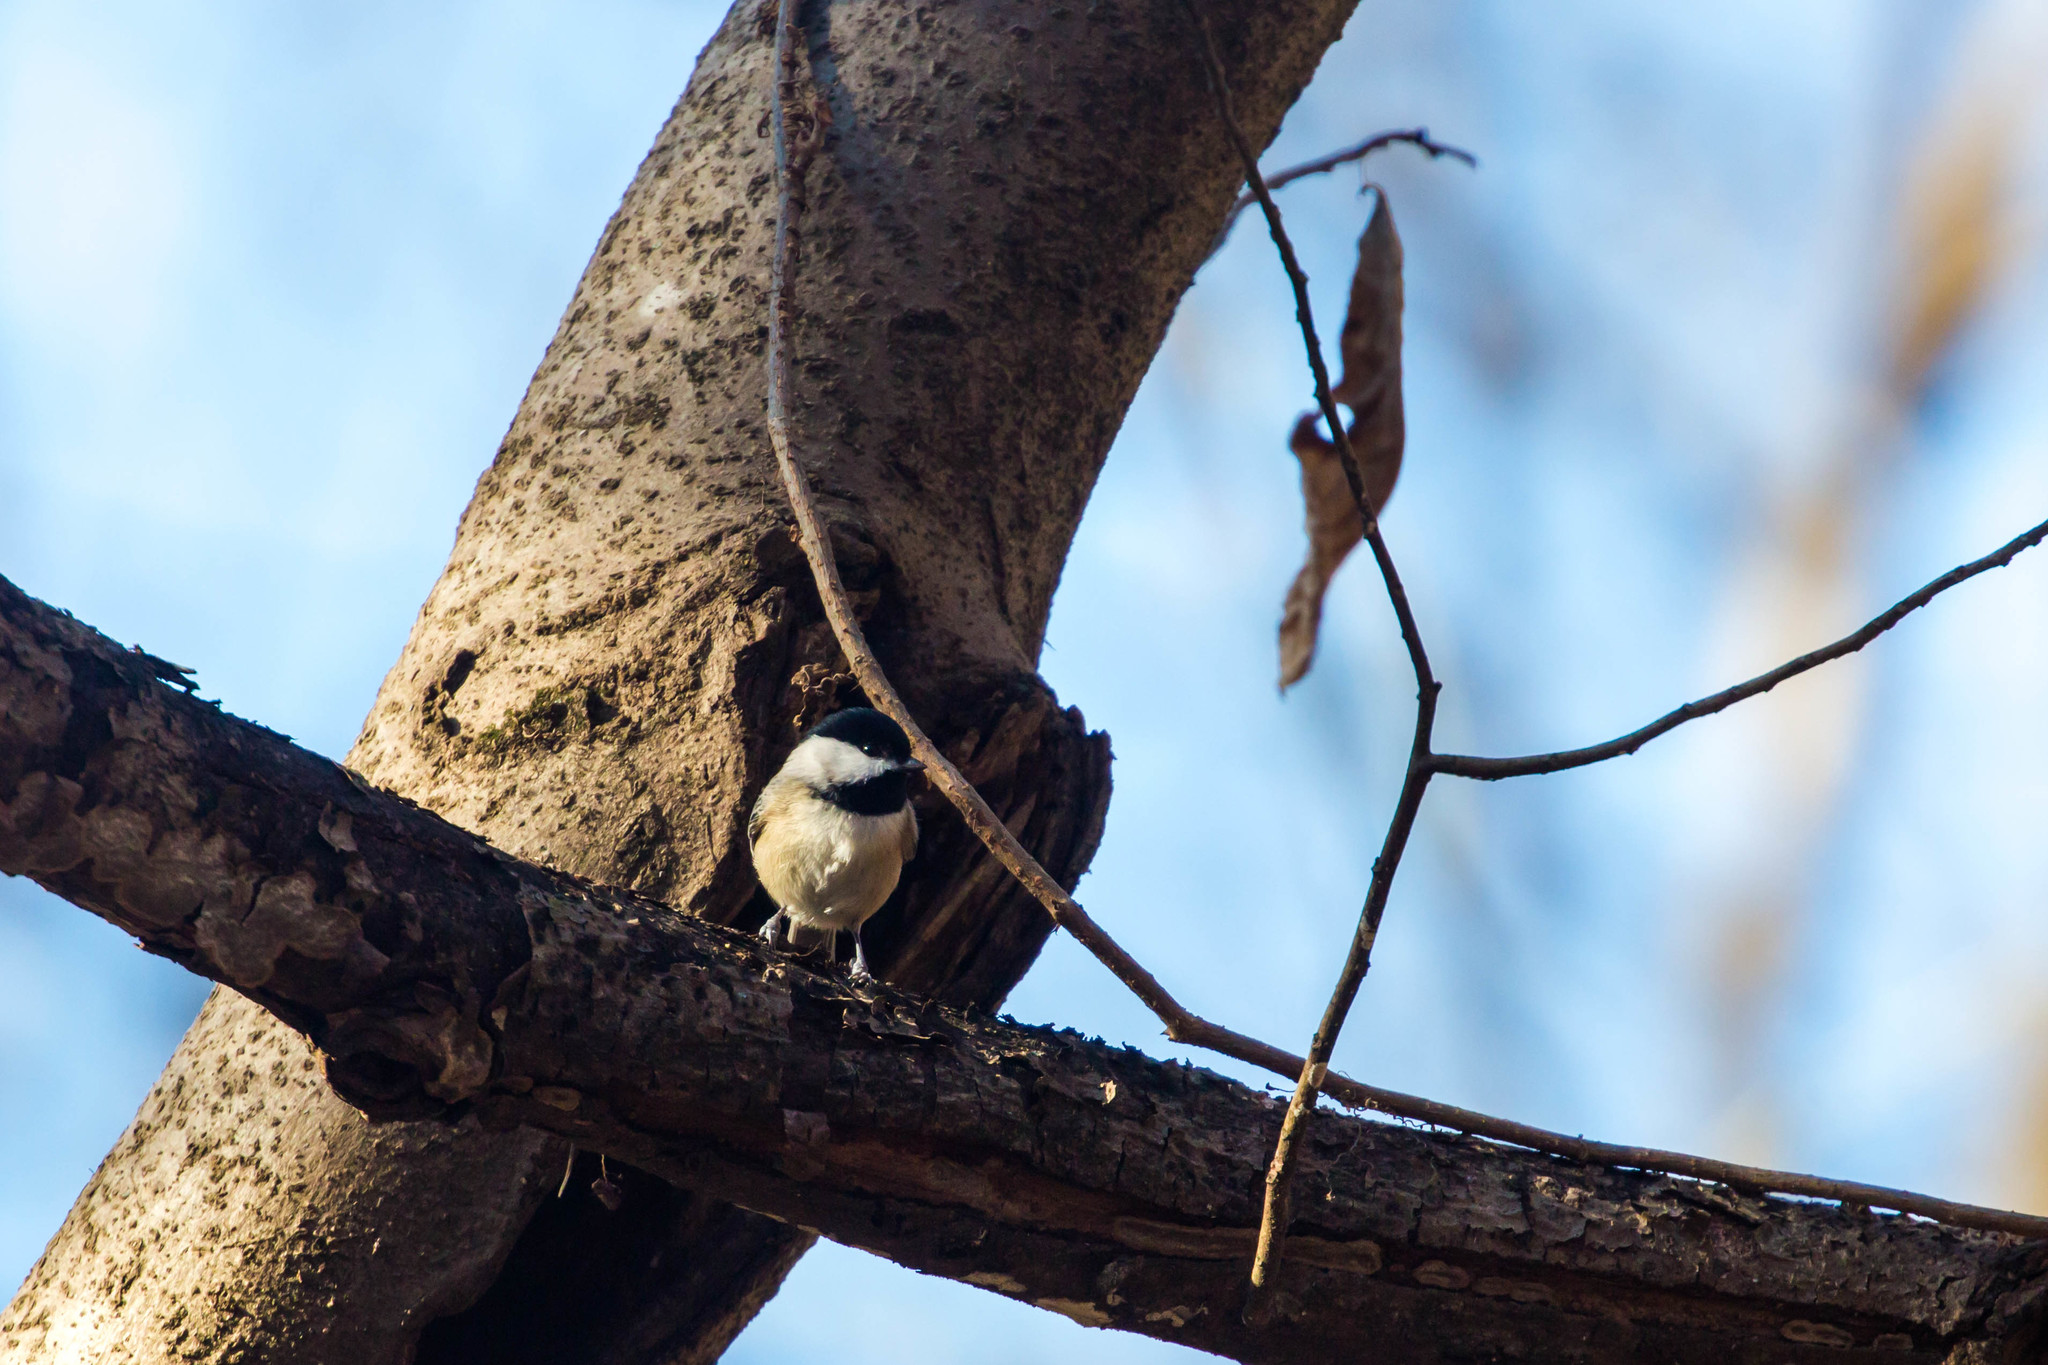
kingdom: Animalia
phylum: Chordata
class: Aves
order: Passeriformes
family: Paridae
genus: Poecile
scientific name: Poecile carolinensis
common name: Carolina chickadee
